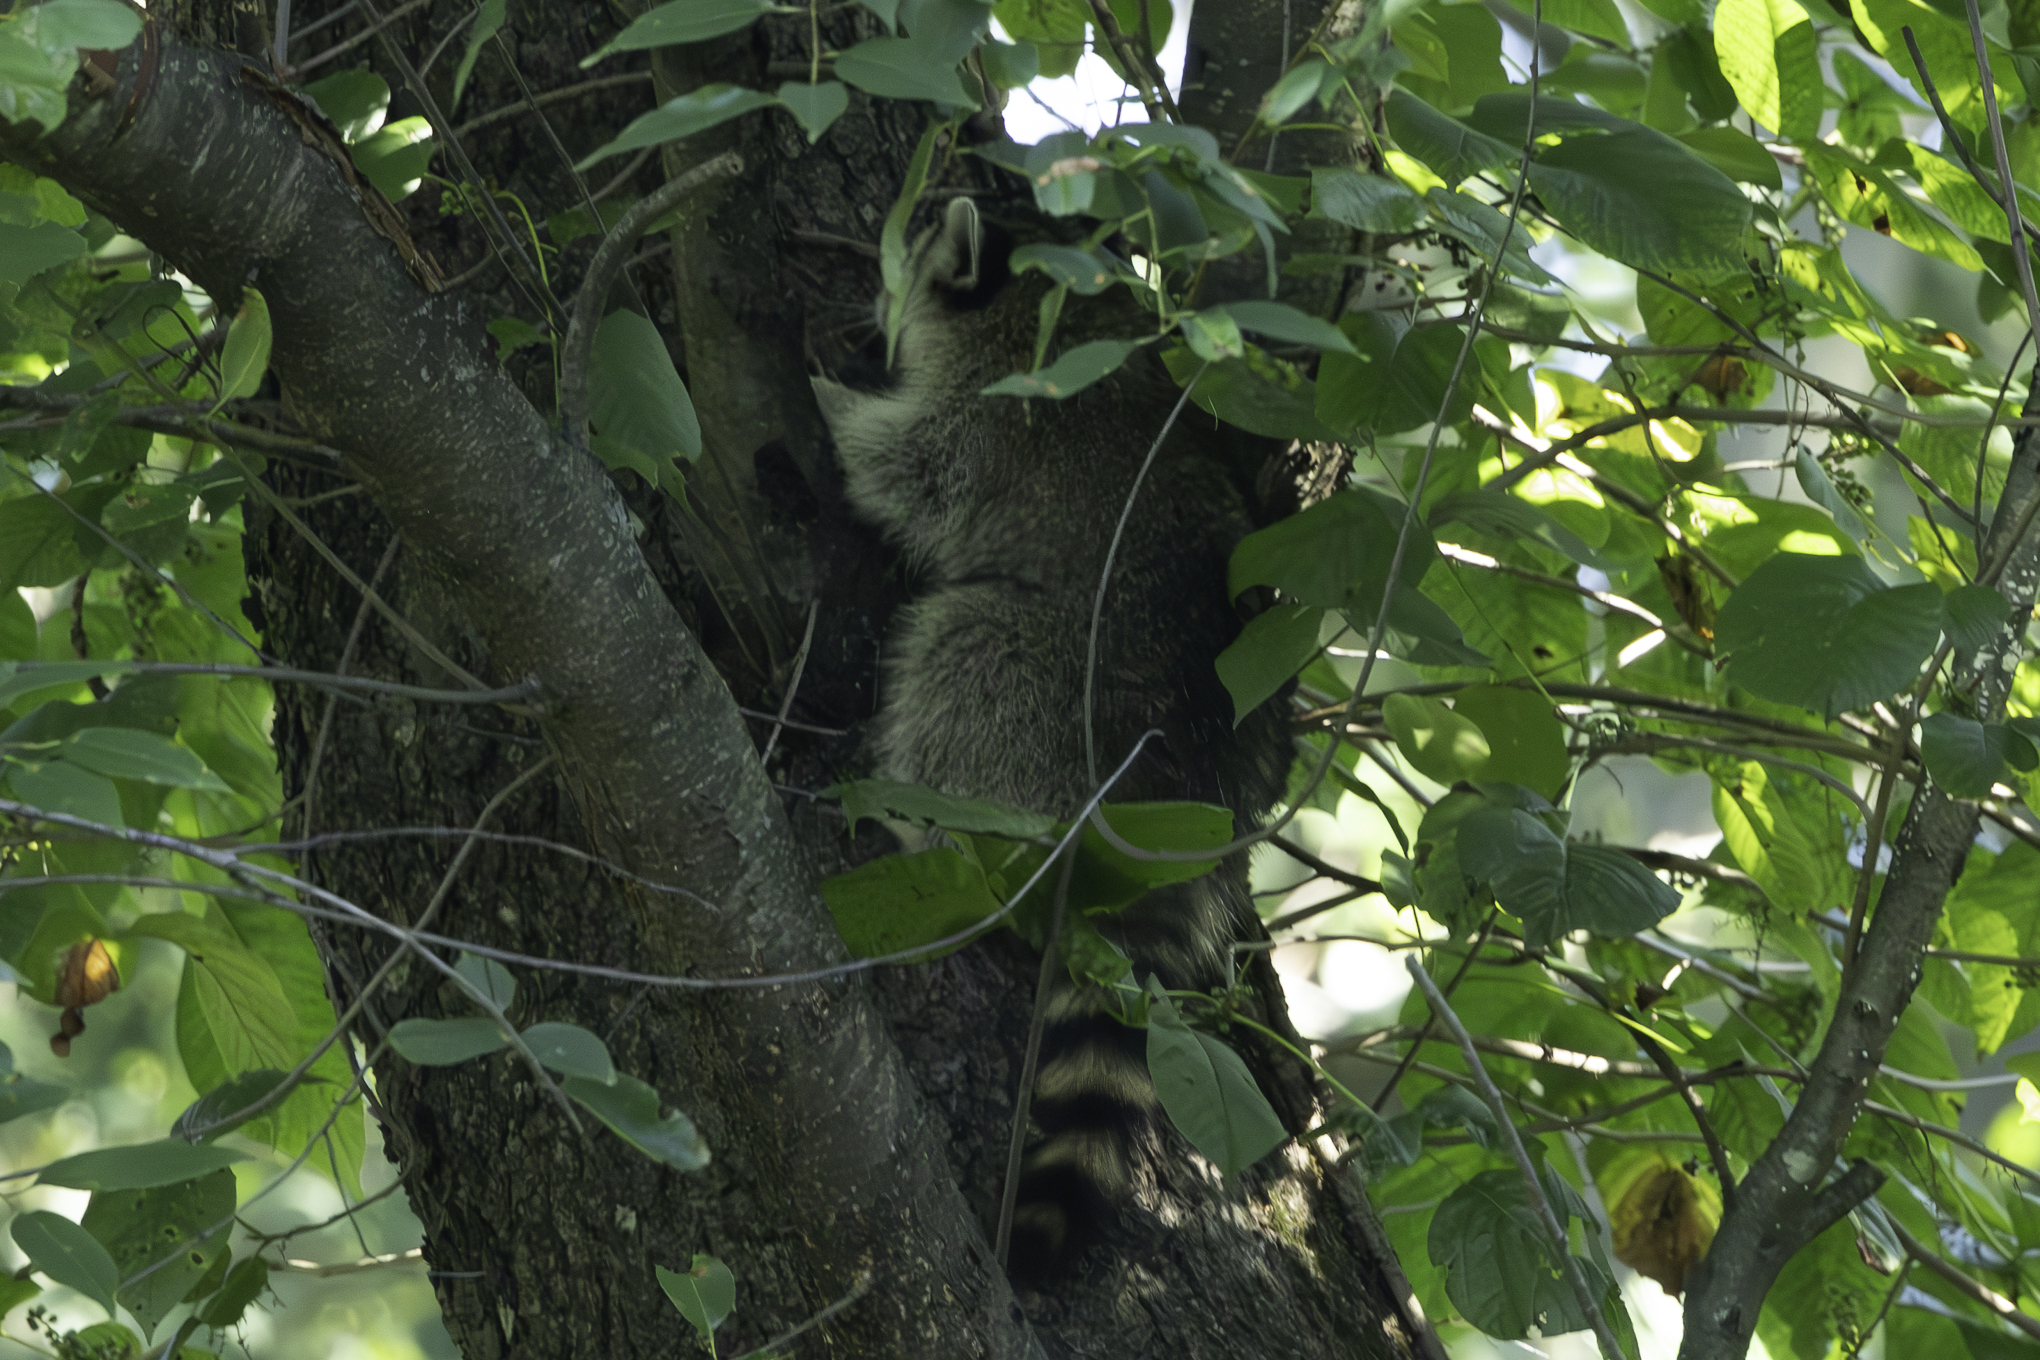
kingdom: Animalia
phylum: Chordata
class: Mammalia
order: Carnivora
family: Procyonidae
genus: Procyon
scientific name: Procyon lotor
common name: Raccoon
